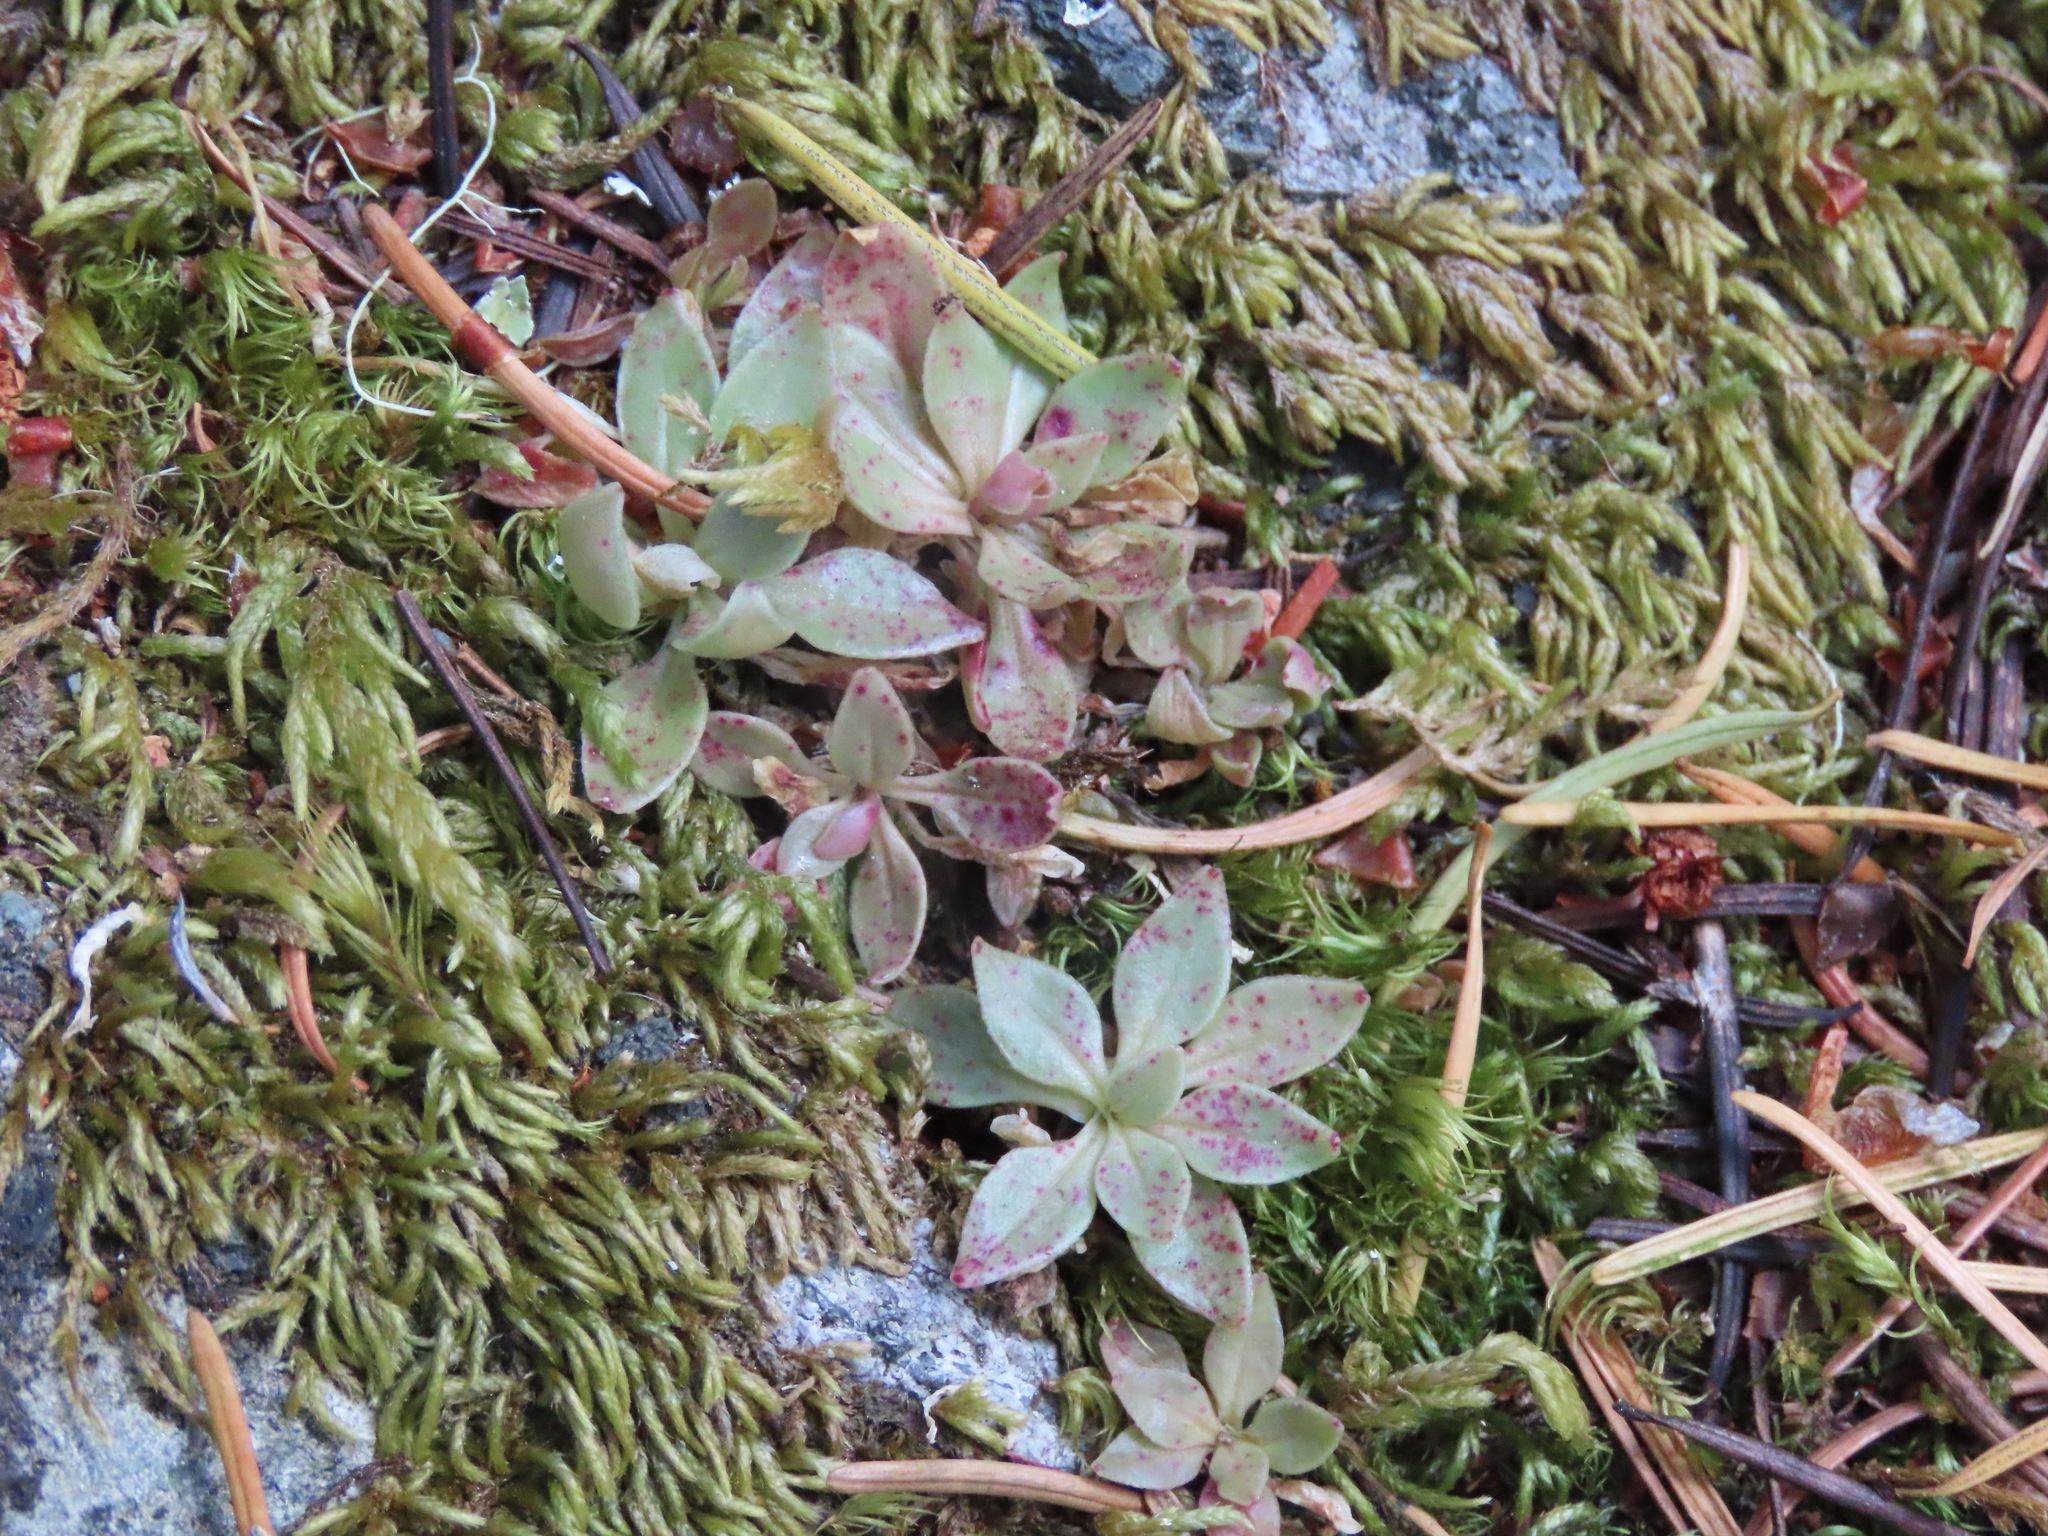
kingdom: Plantae
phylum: Tracheophyta
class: Magnoliopsida
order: Caryophyllales
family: Montiaceae
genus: Montia
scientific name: Montia parvifolia
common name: Small-leaved blinks
